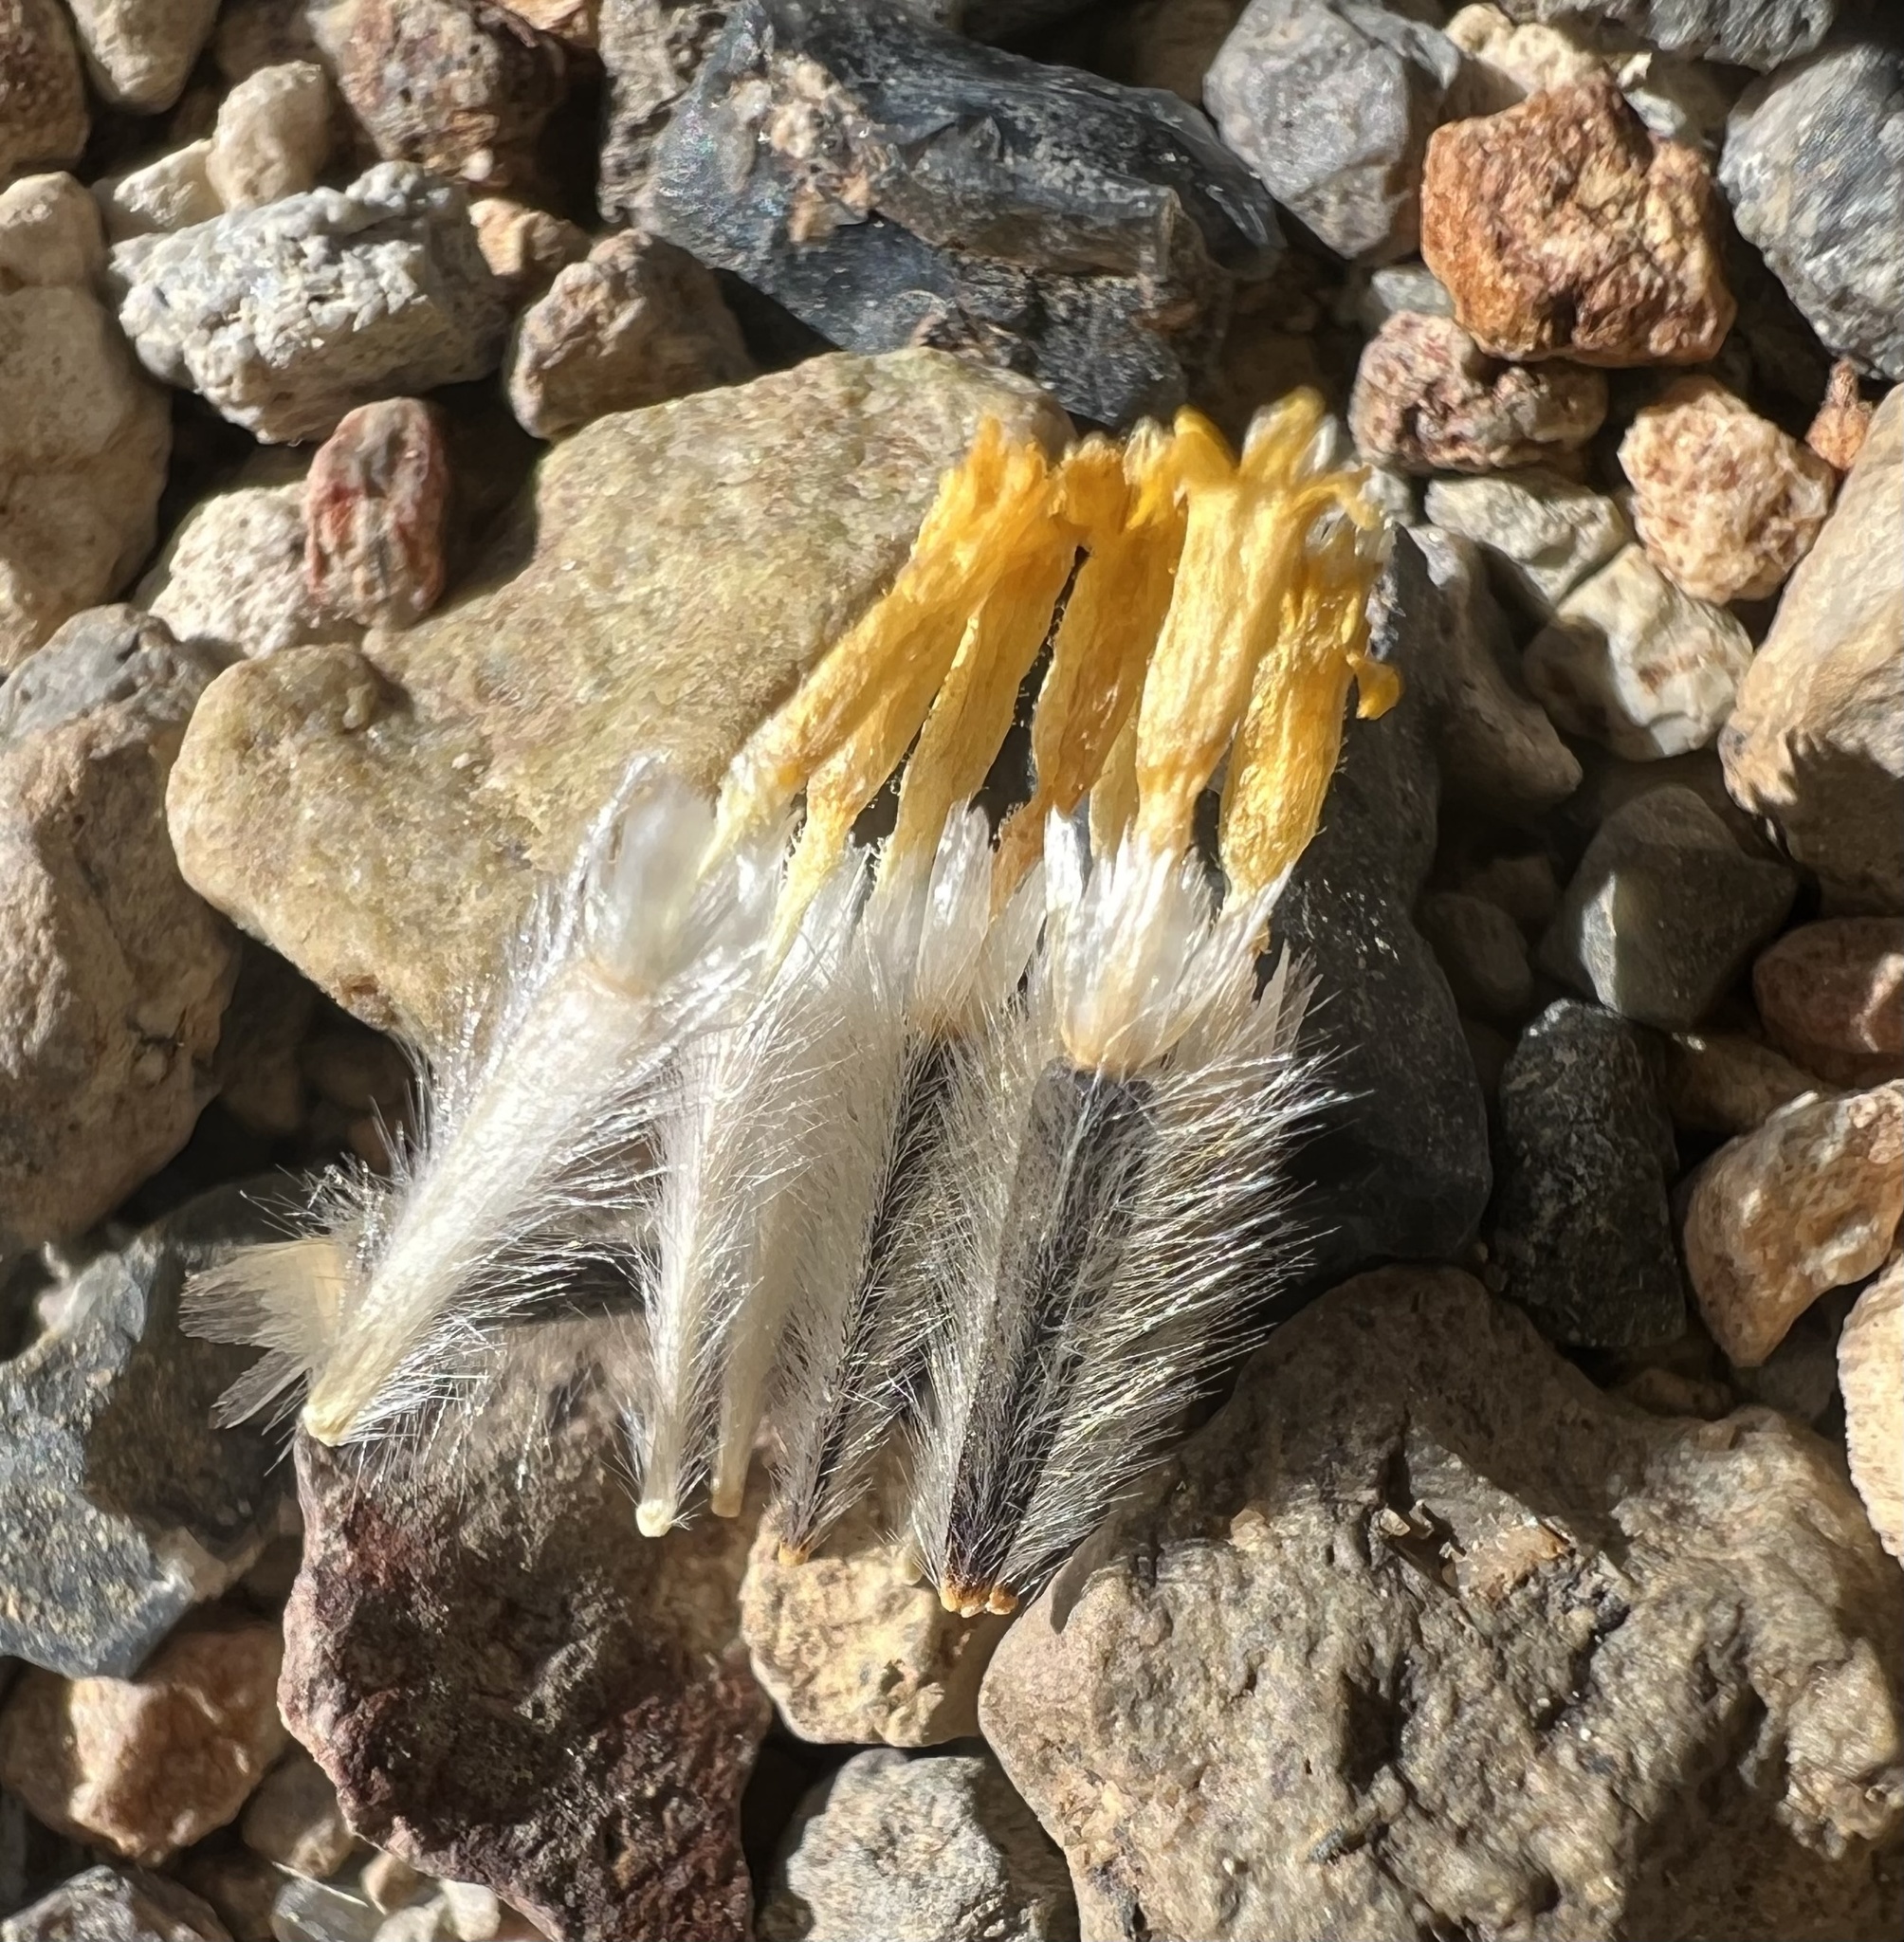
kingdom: Plantae
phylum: Tracheophyta
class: Magnoliopsida
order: Asterales
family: Asteraceae
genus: Hulsea
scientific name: Hulsea vestita
